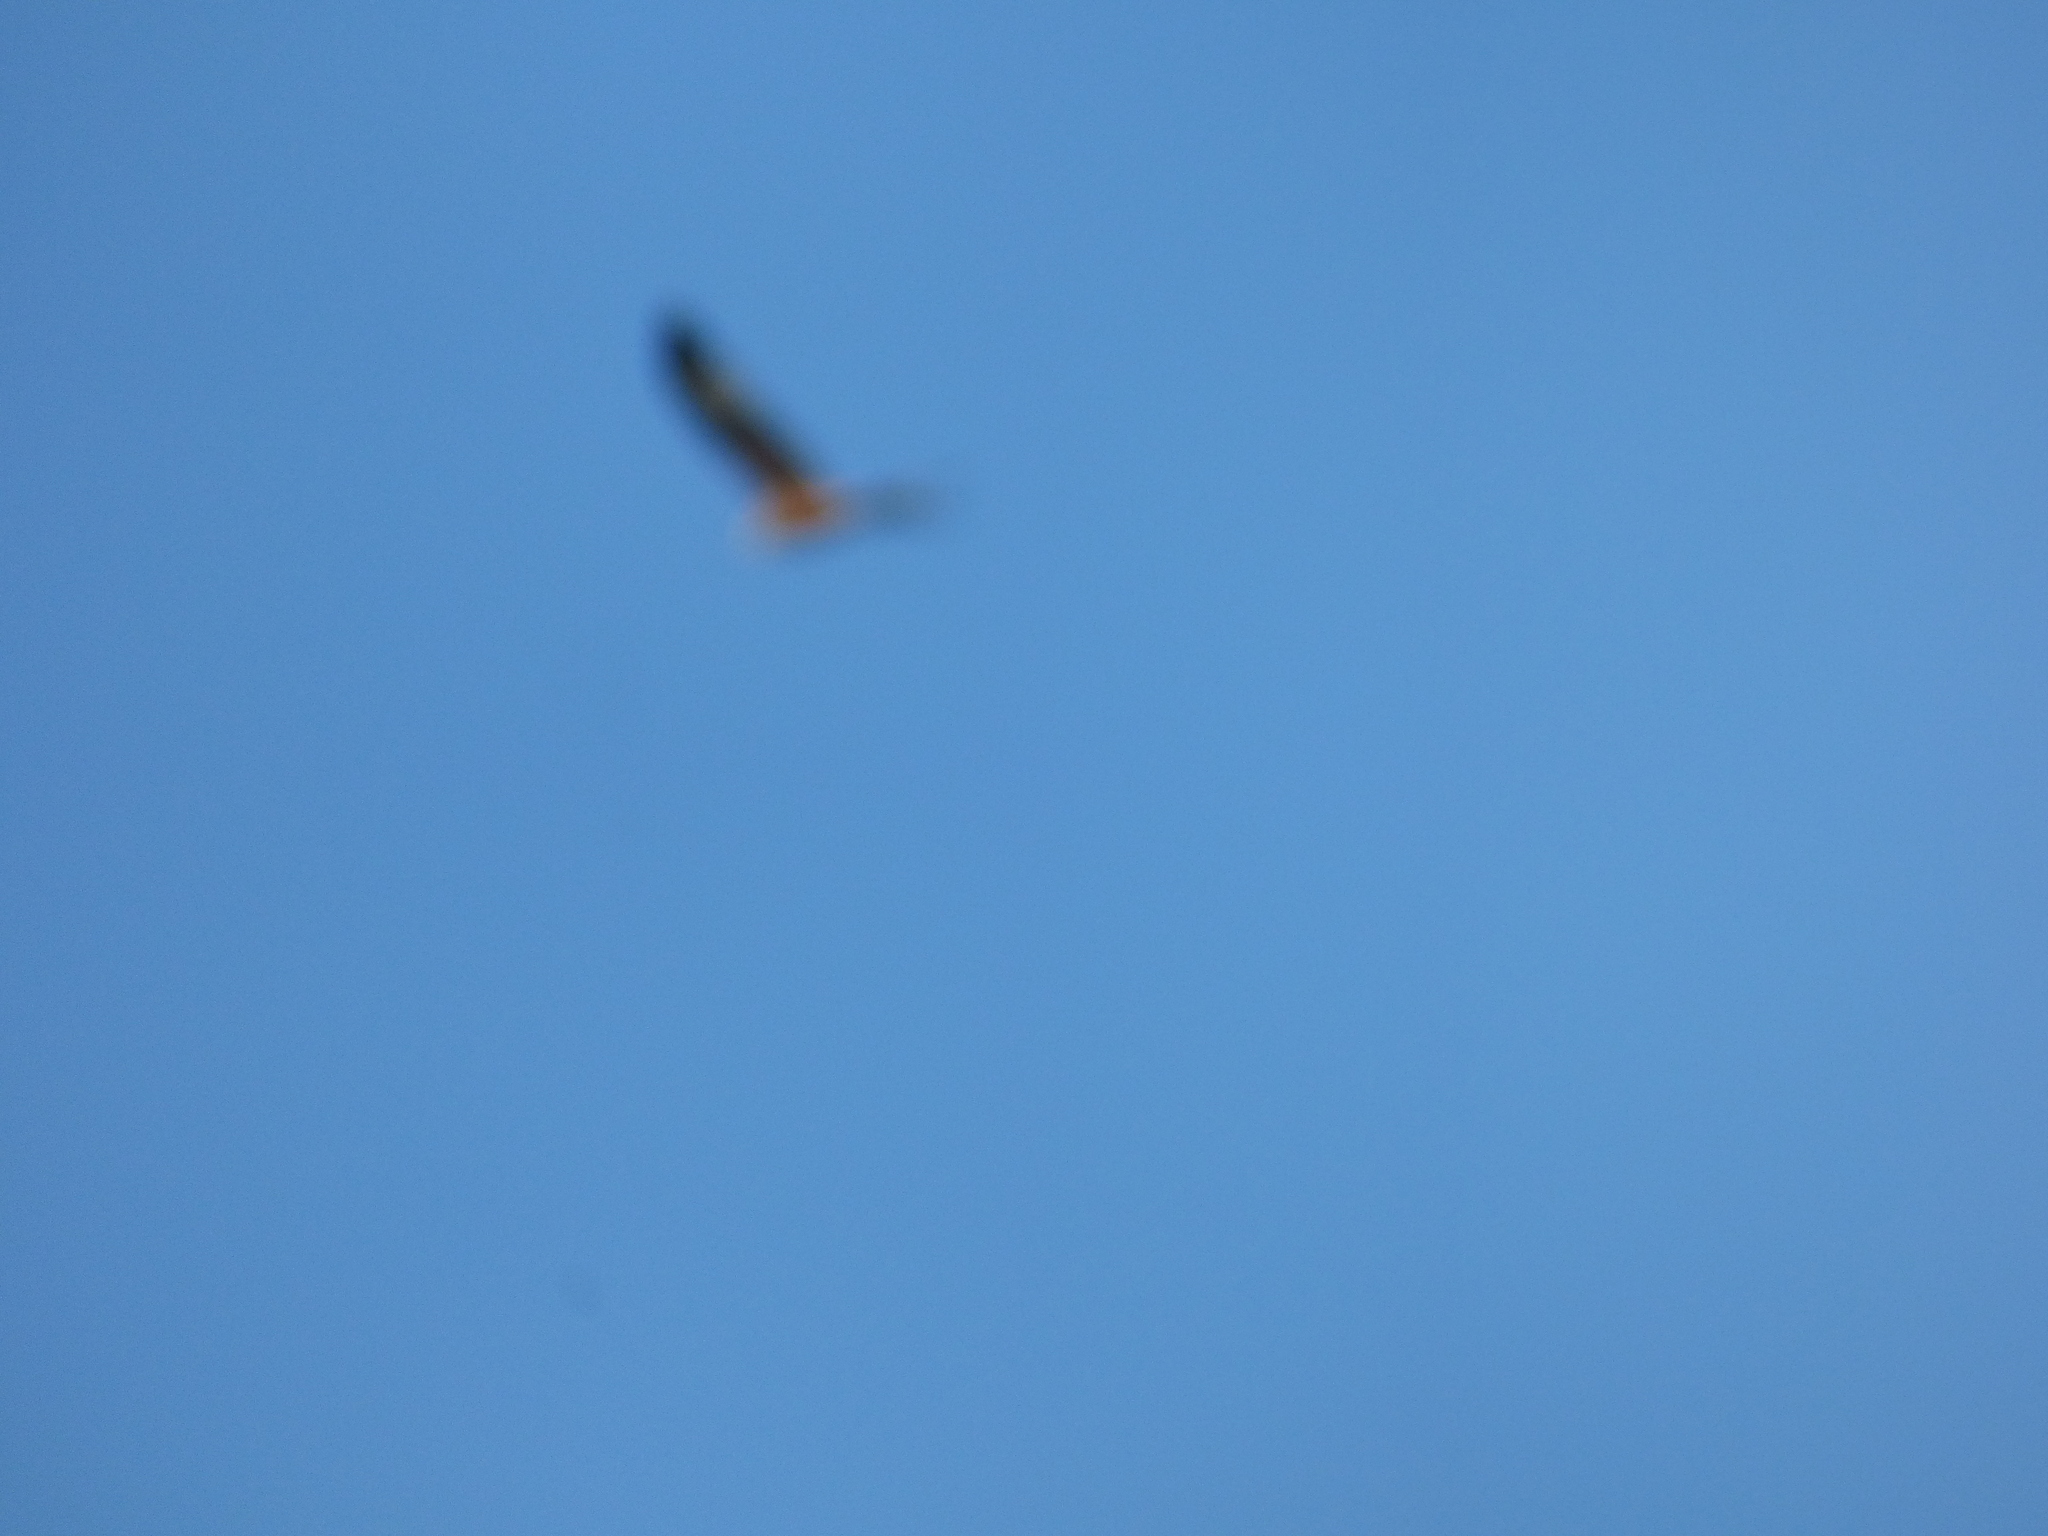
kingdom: Animalia
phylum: Chordata
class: Aves
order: Accipitriformes
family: Accipitridae
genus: Milvus
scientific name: Milvus milvus
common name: Red kite
